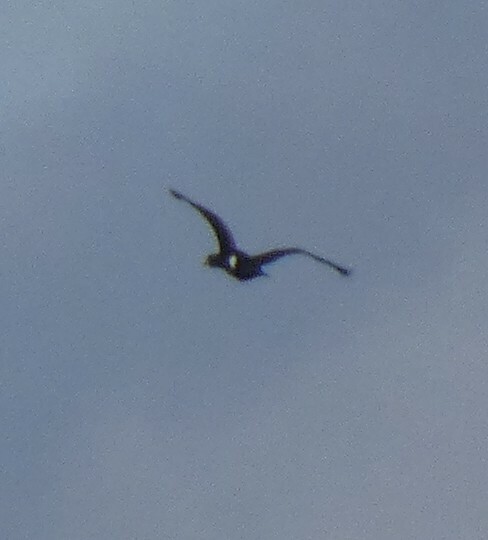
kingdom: Animalia
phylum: Chordata
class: Aves
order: Suliformes
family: Phalacrocoracidae
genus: Phalacrocorax
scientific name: Phalacrocorax carbo
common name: Great cormorant
